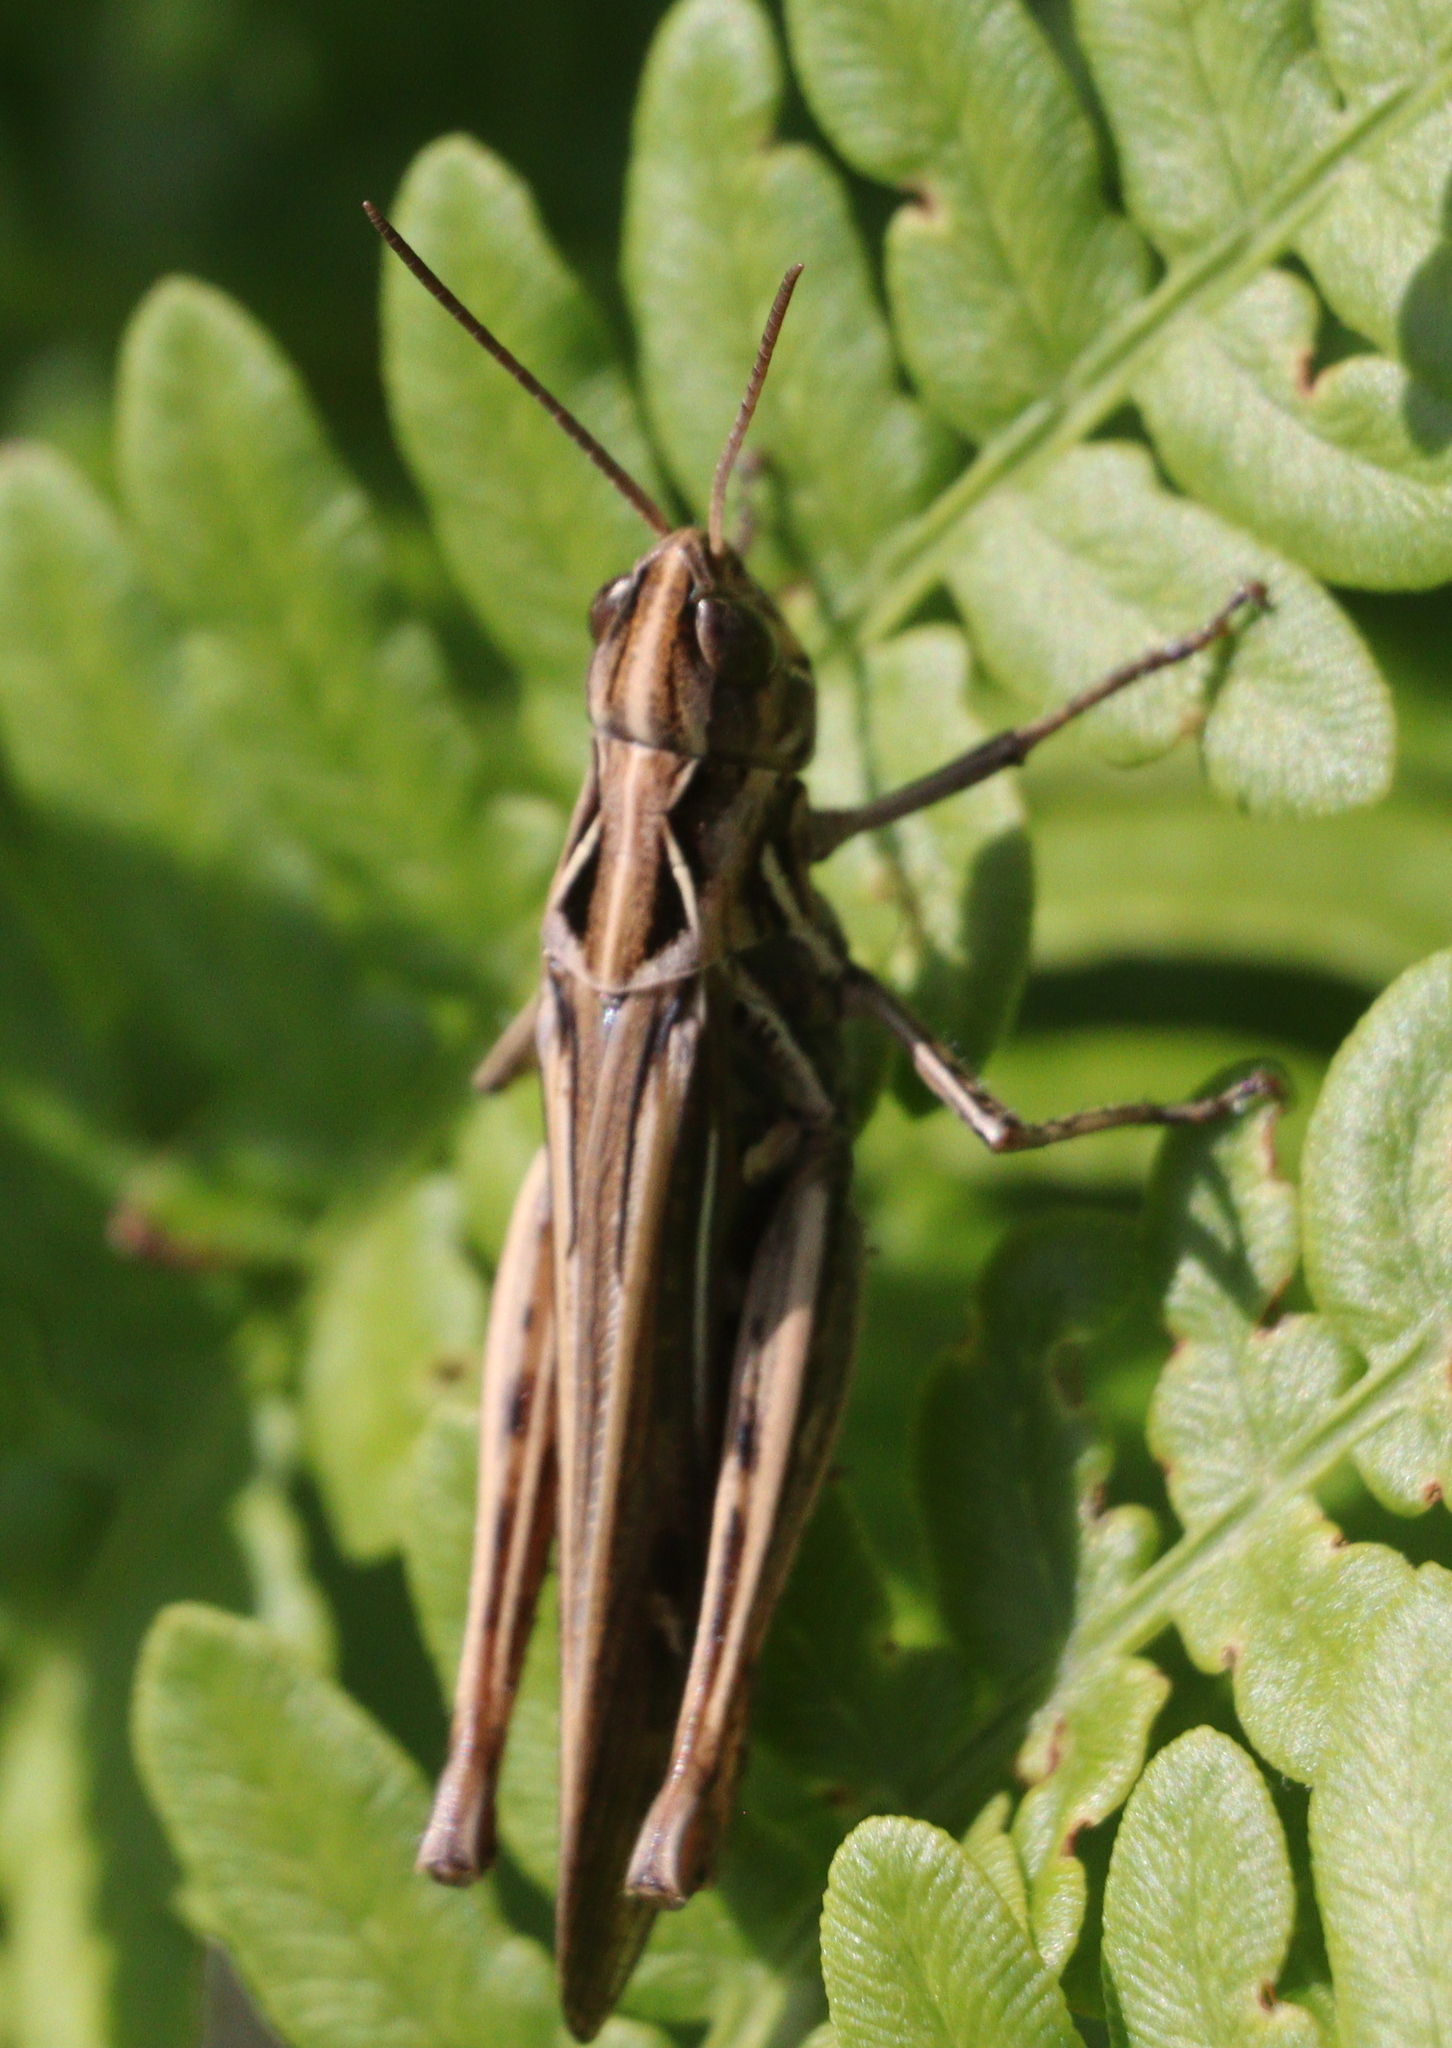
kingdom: Animalia
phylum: Arthropoda
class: Insecta
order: Orthoptera
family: Acrididae
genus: Chorthippus
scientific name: Chorthippus maritimus
